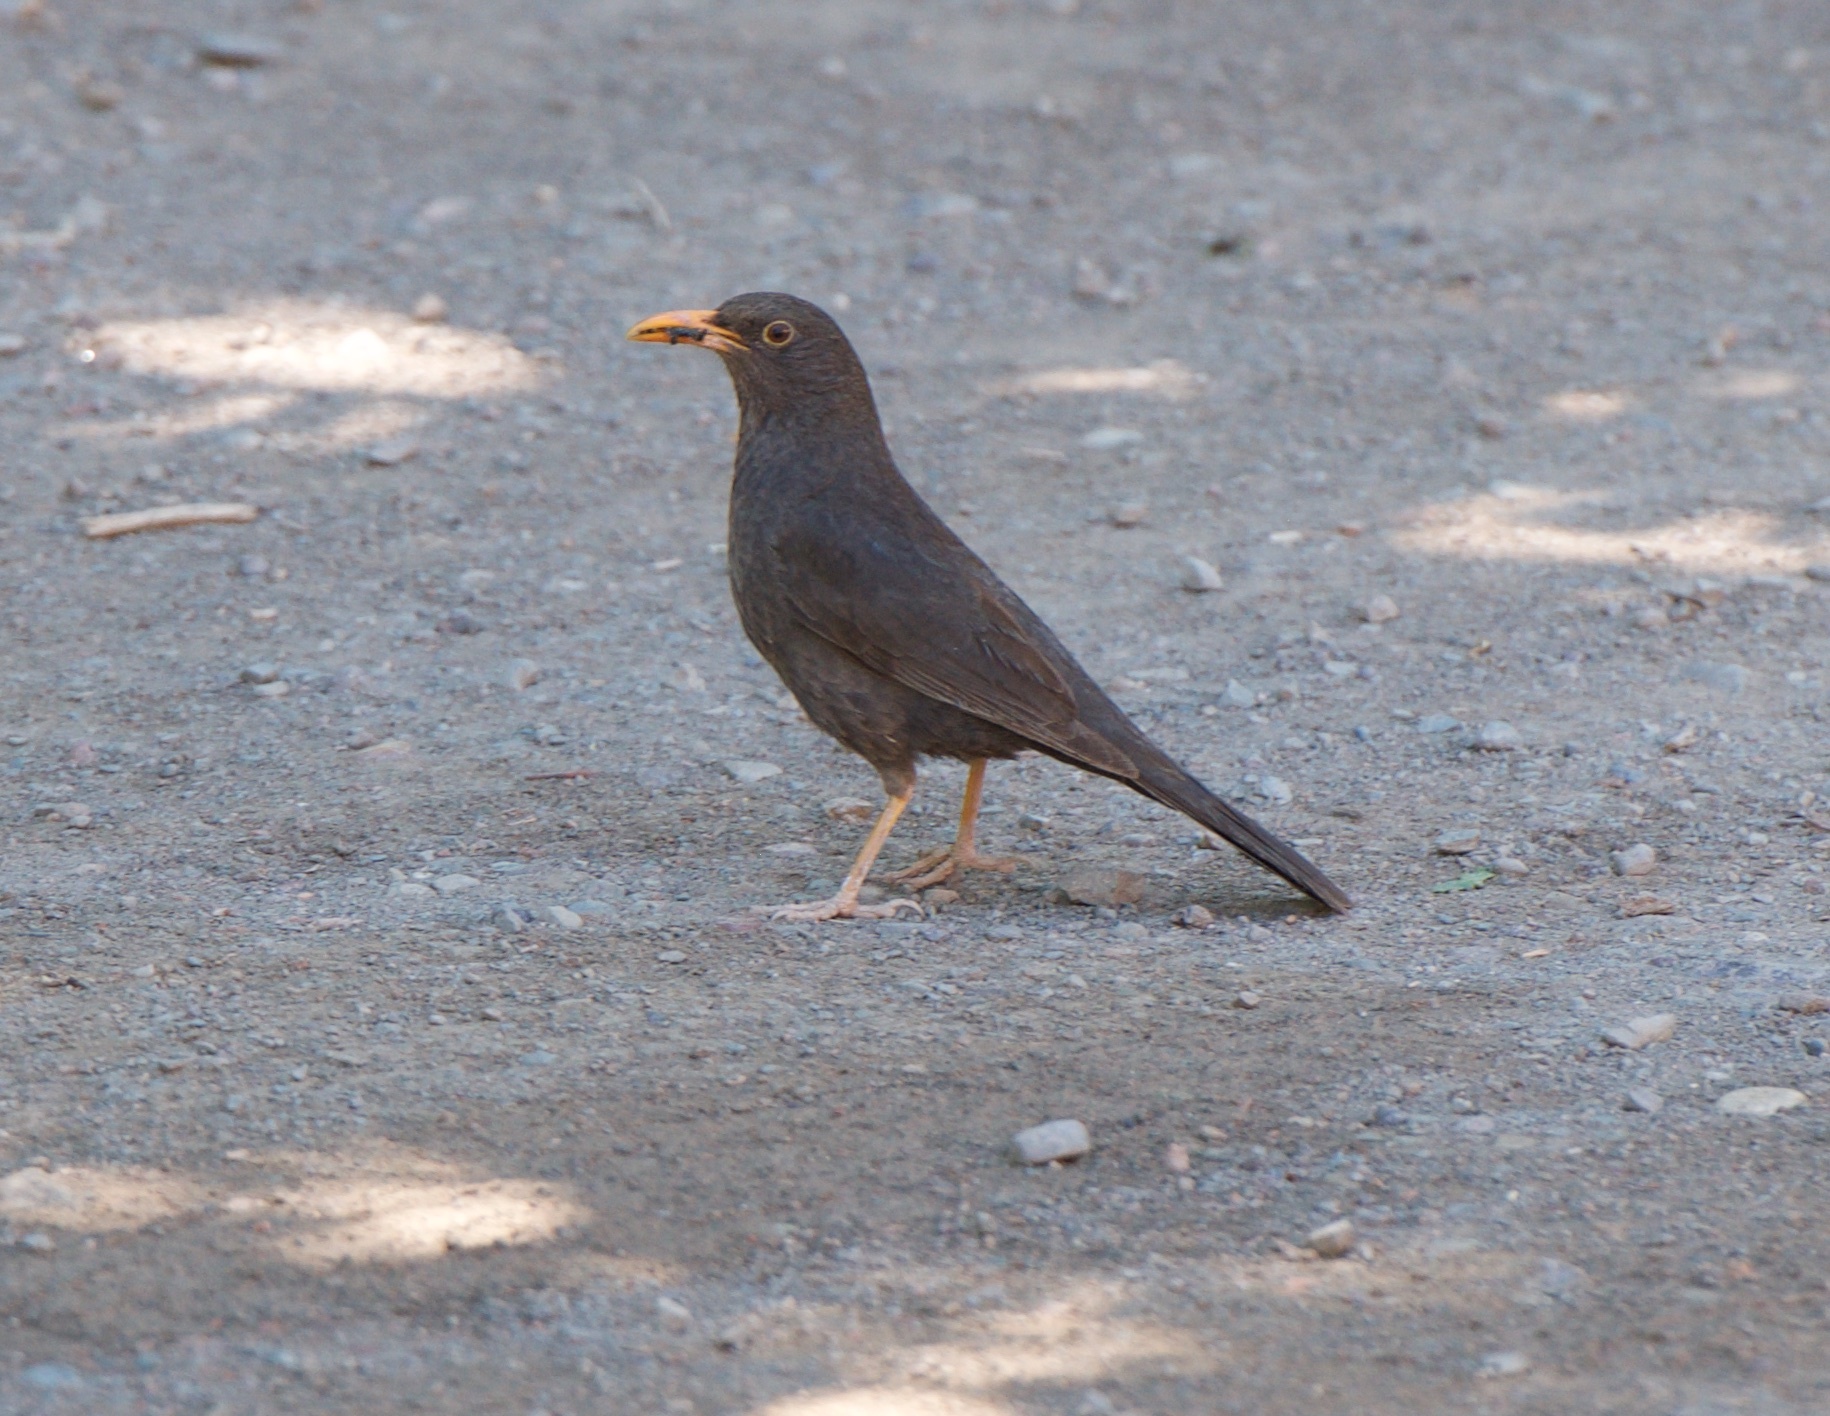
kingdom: Animalia
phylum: Chordata
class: Aves
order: Passeriformes
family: Turdidae
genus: Turdus
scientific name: Turdus chiguanco
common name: Chiguanco thrush
